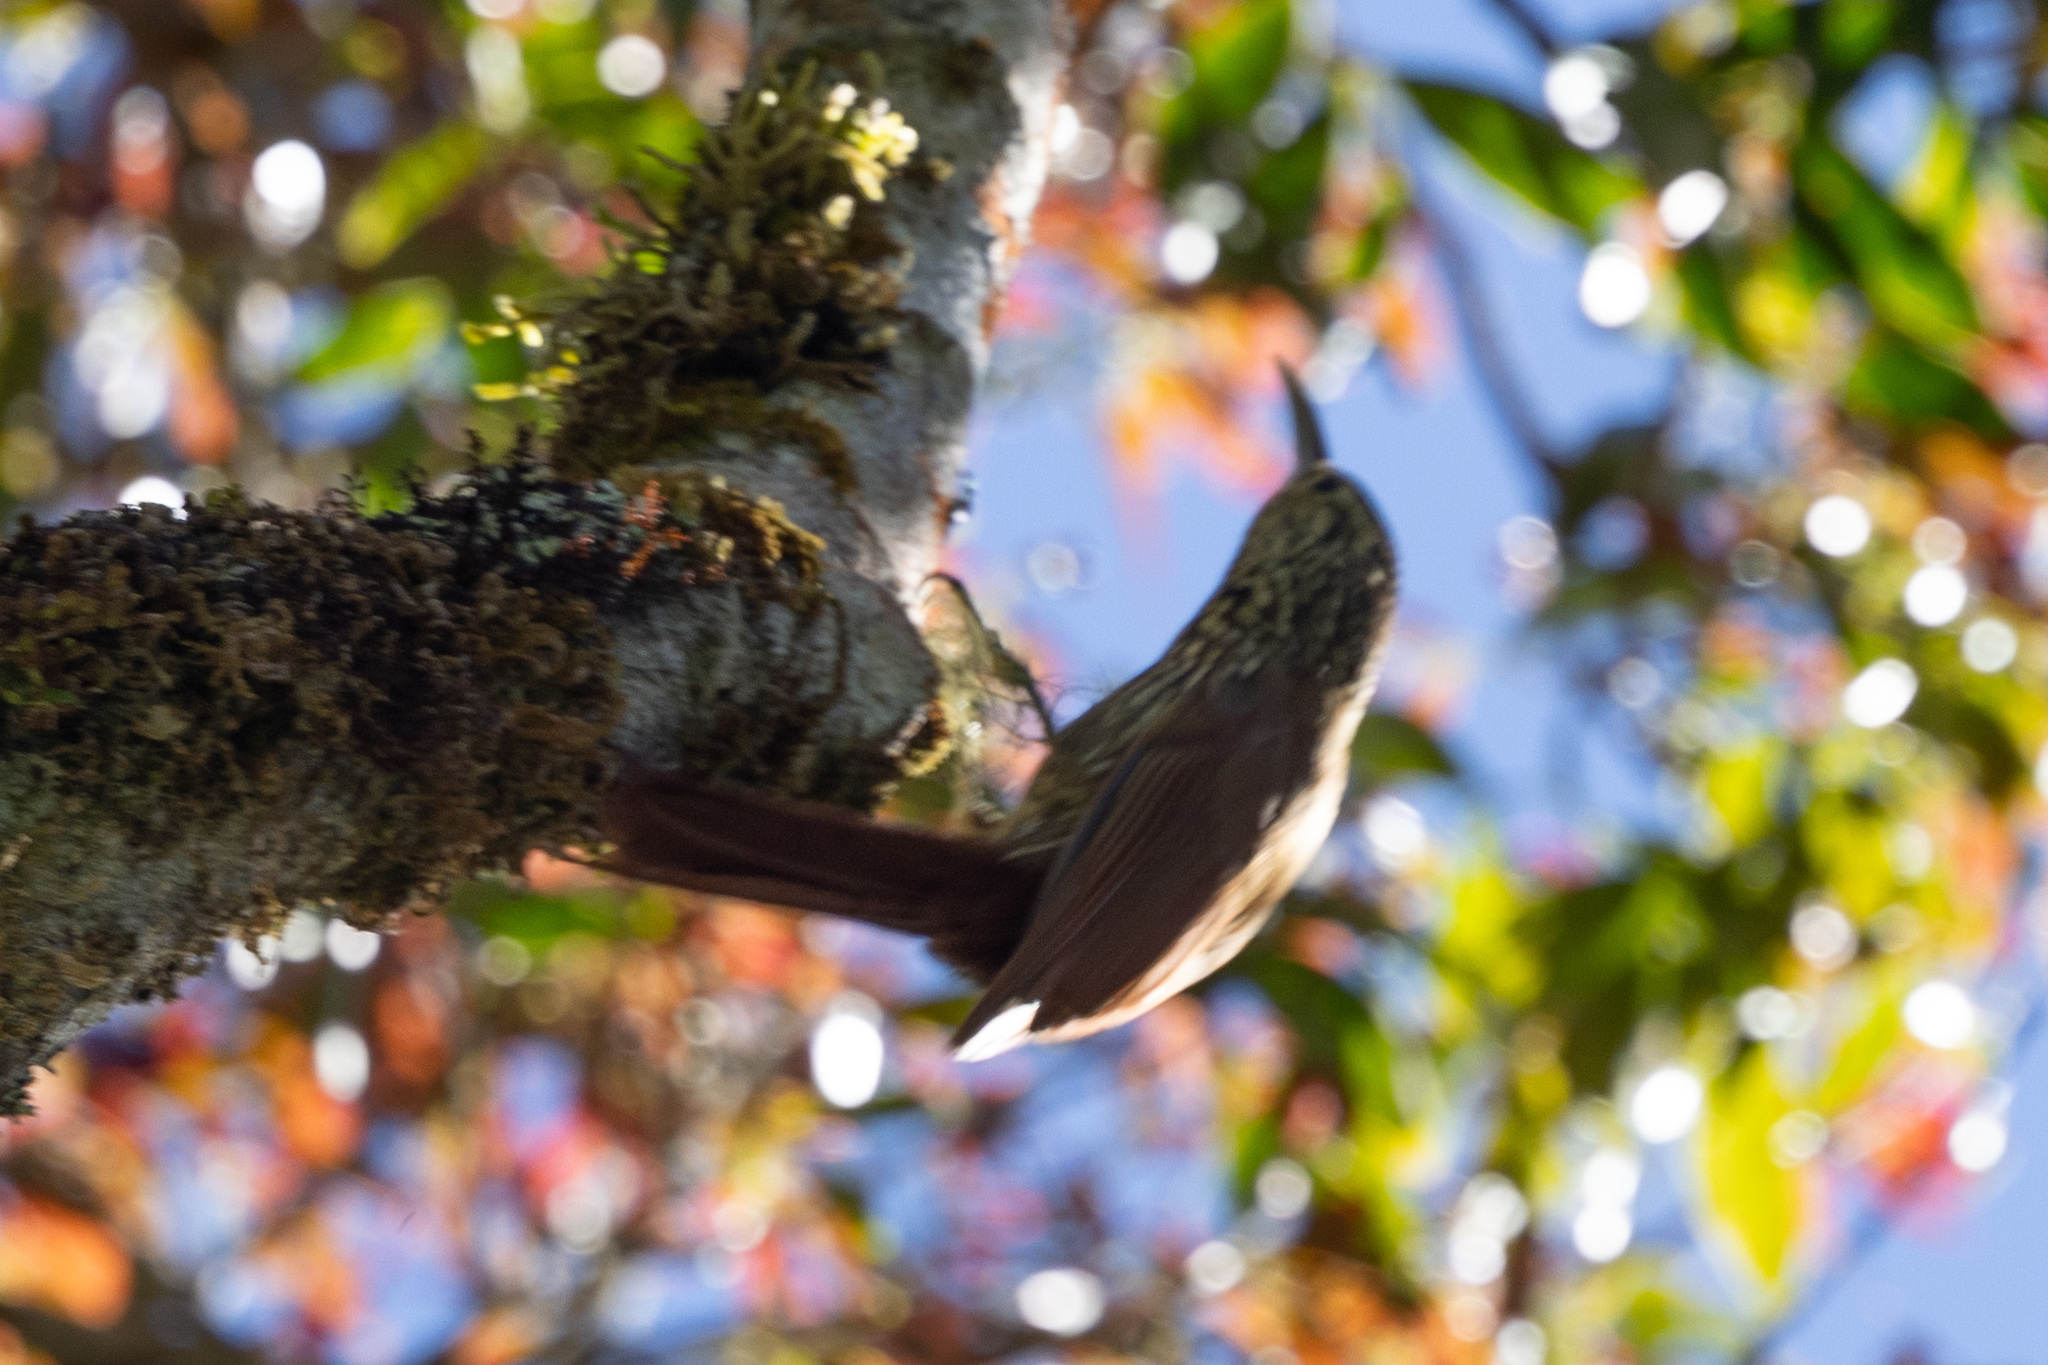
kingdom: Animalia
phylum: Chordata
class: Aves
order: Passeriformes
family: Furnariidae
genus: Lepidocolaptes
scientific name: Lepidocolaptes affinis
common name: Spot-crowned woodcreeper
